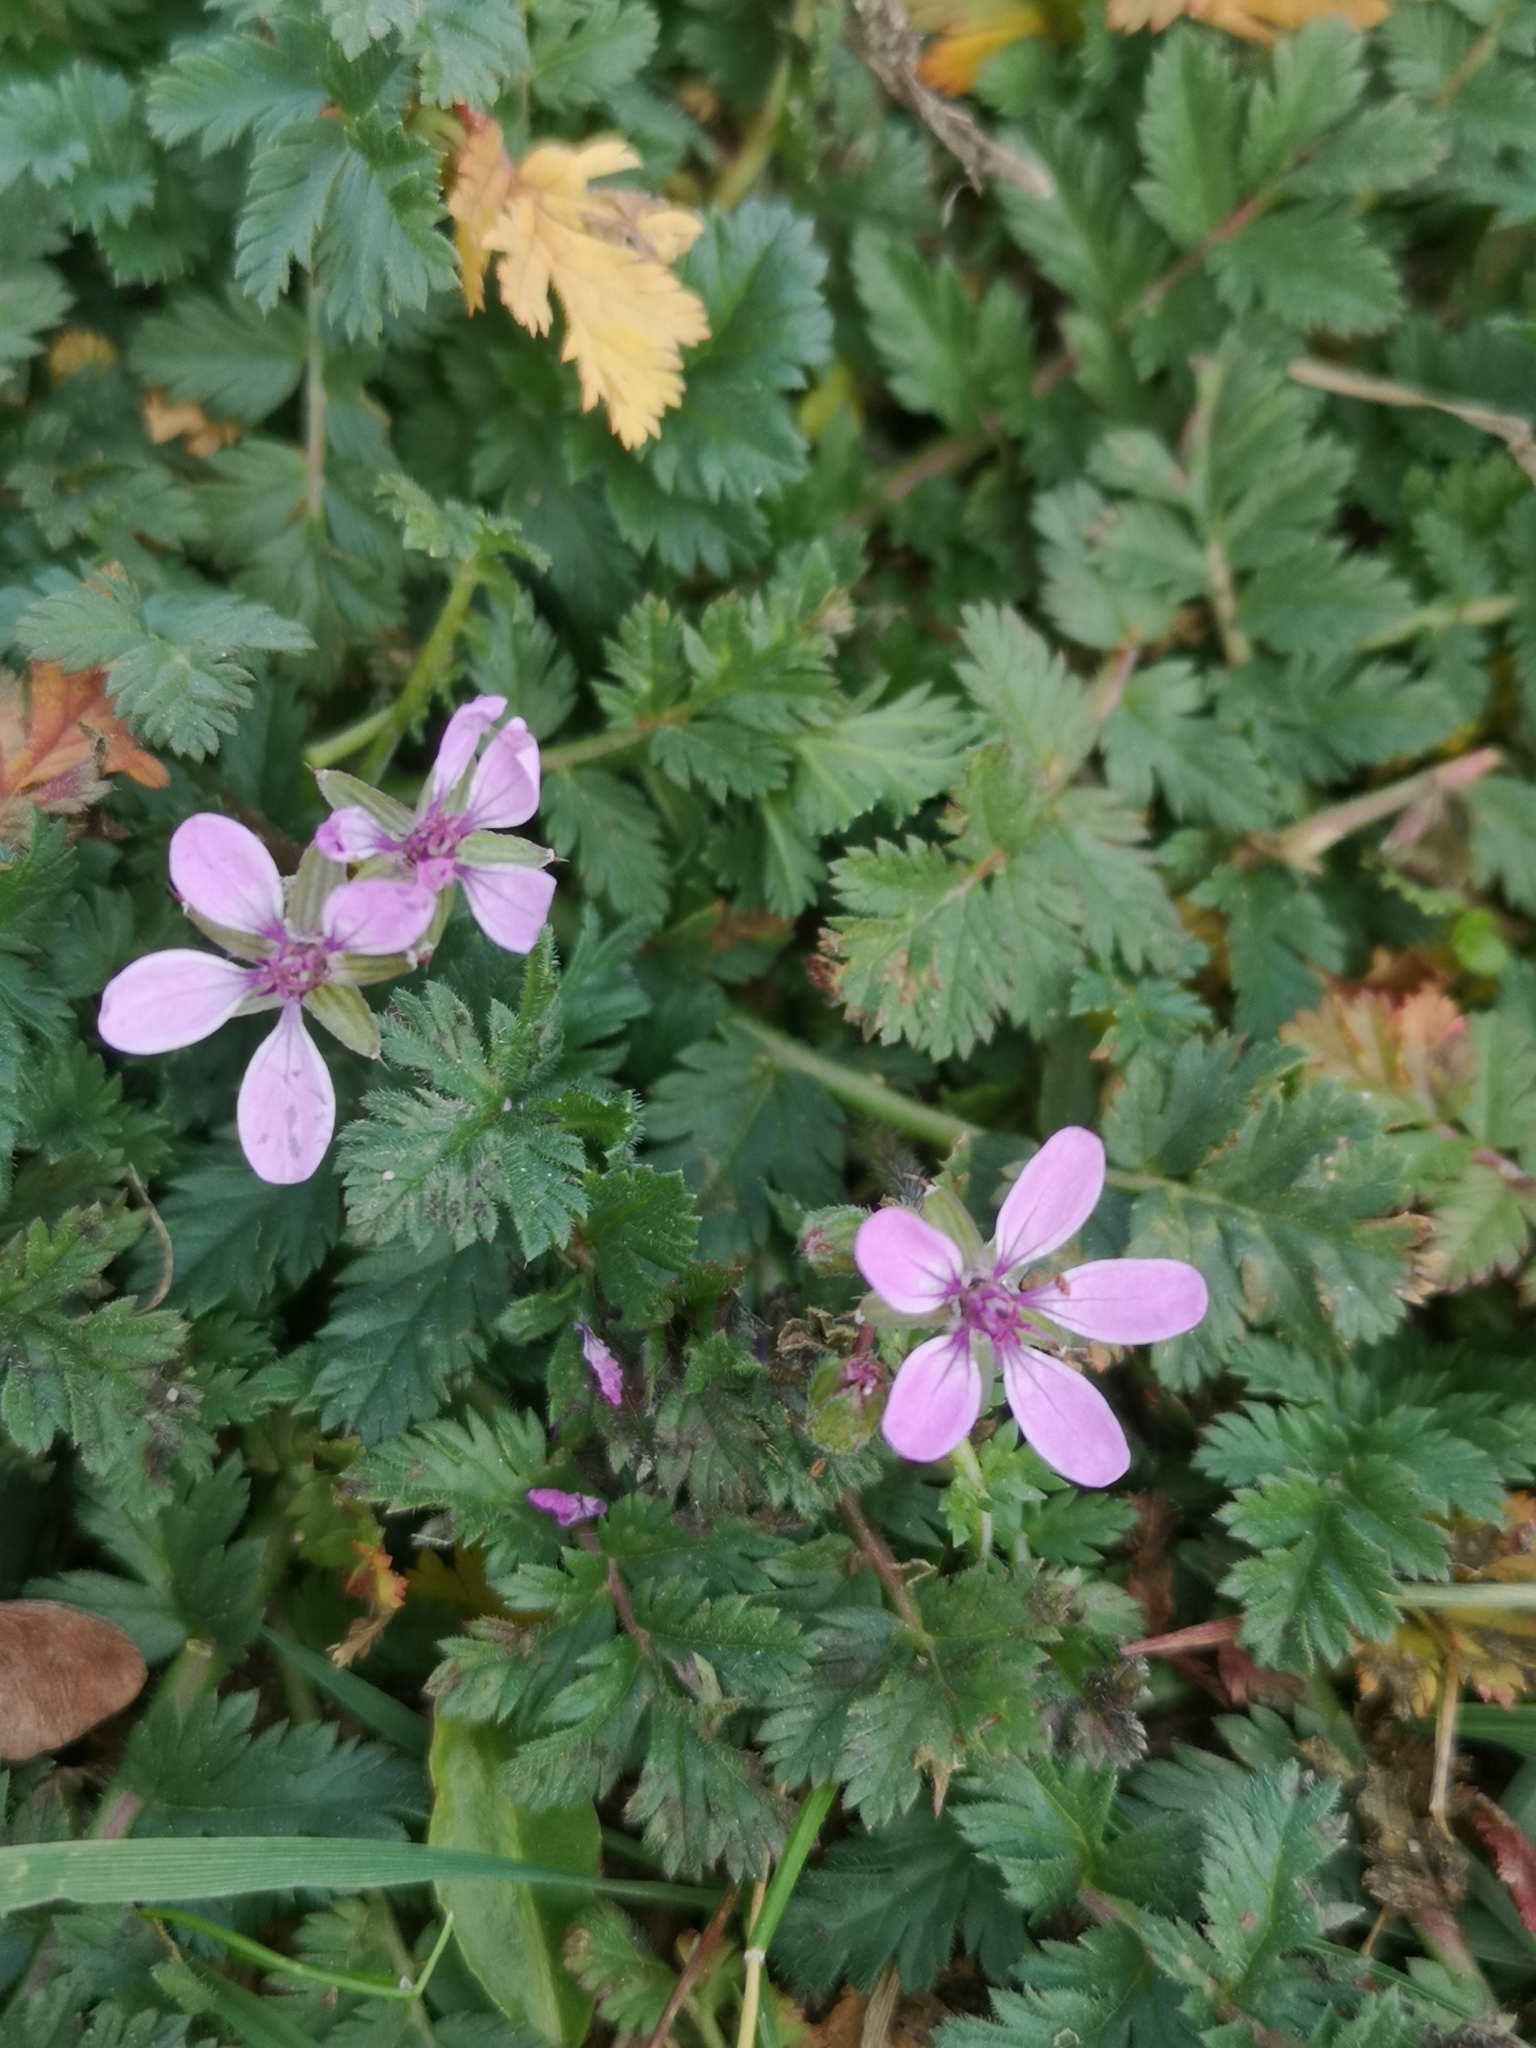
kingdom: Plantae
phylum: Tracheophyta
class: Magnoliopsida
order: Geraniales
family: Geraniaceae
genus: Erodium
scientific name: Erodium cicutarium
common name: Common stork's-bill
